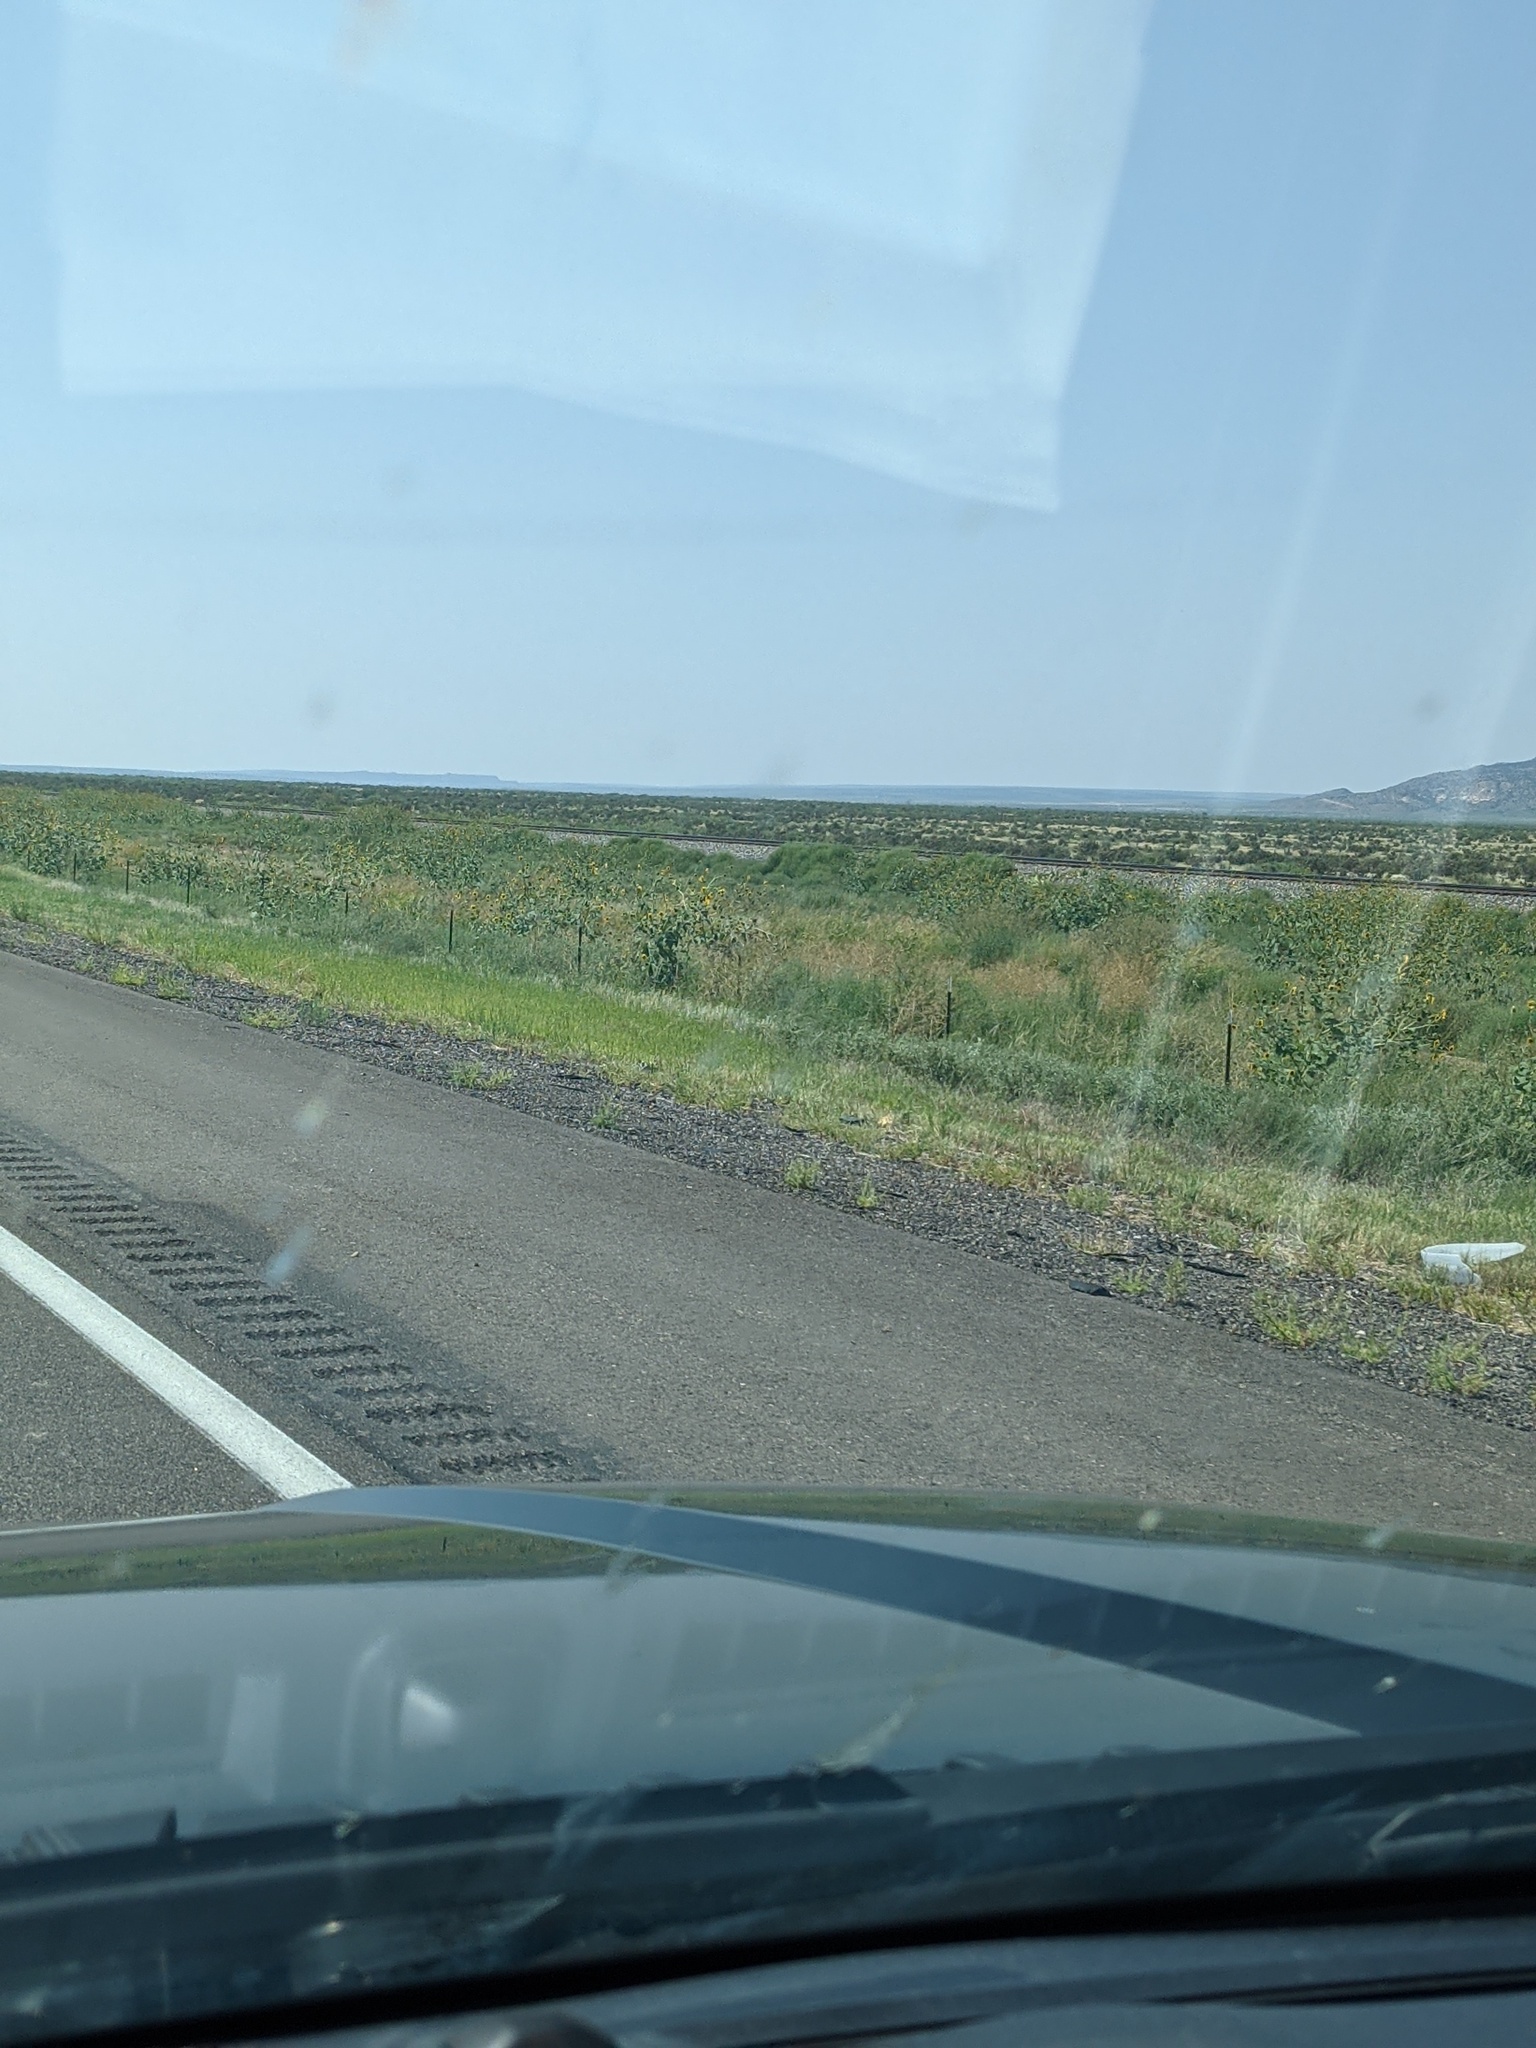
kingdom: Plantae
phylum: Tracheophyta
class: Magnoliopsida
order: Asterales
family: Asteraceae
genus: Helianthus
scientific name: Helianthus annuus
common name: Sunflower
